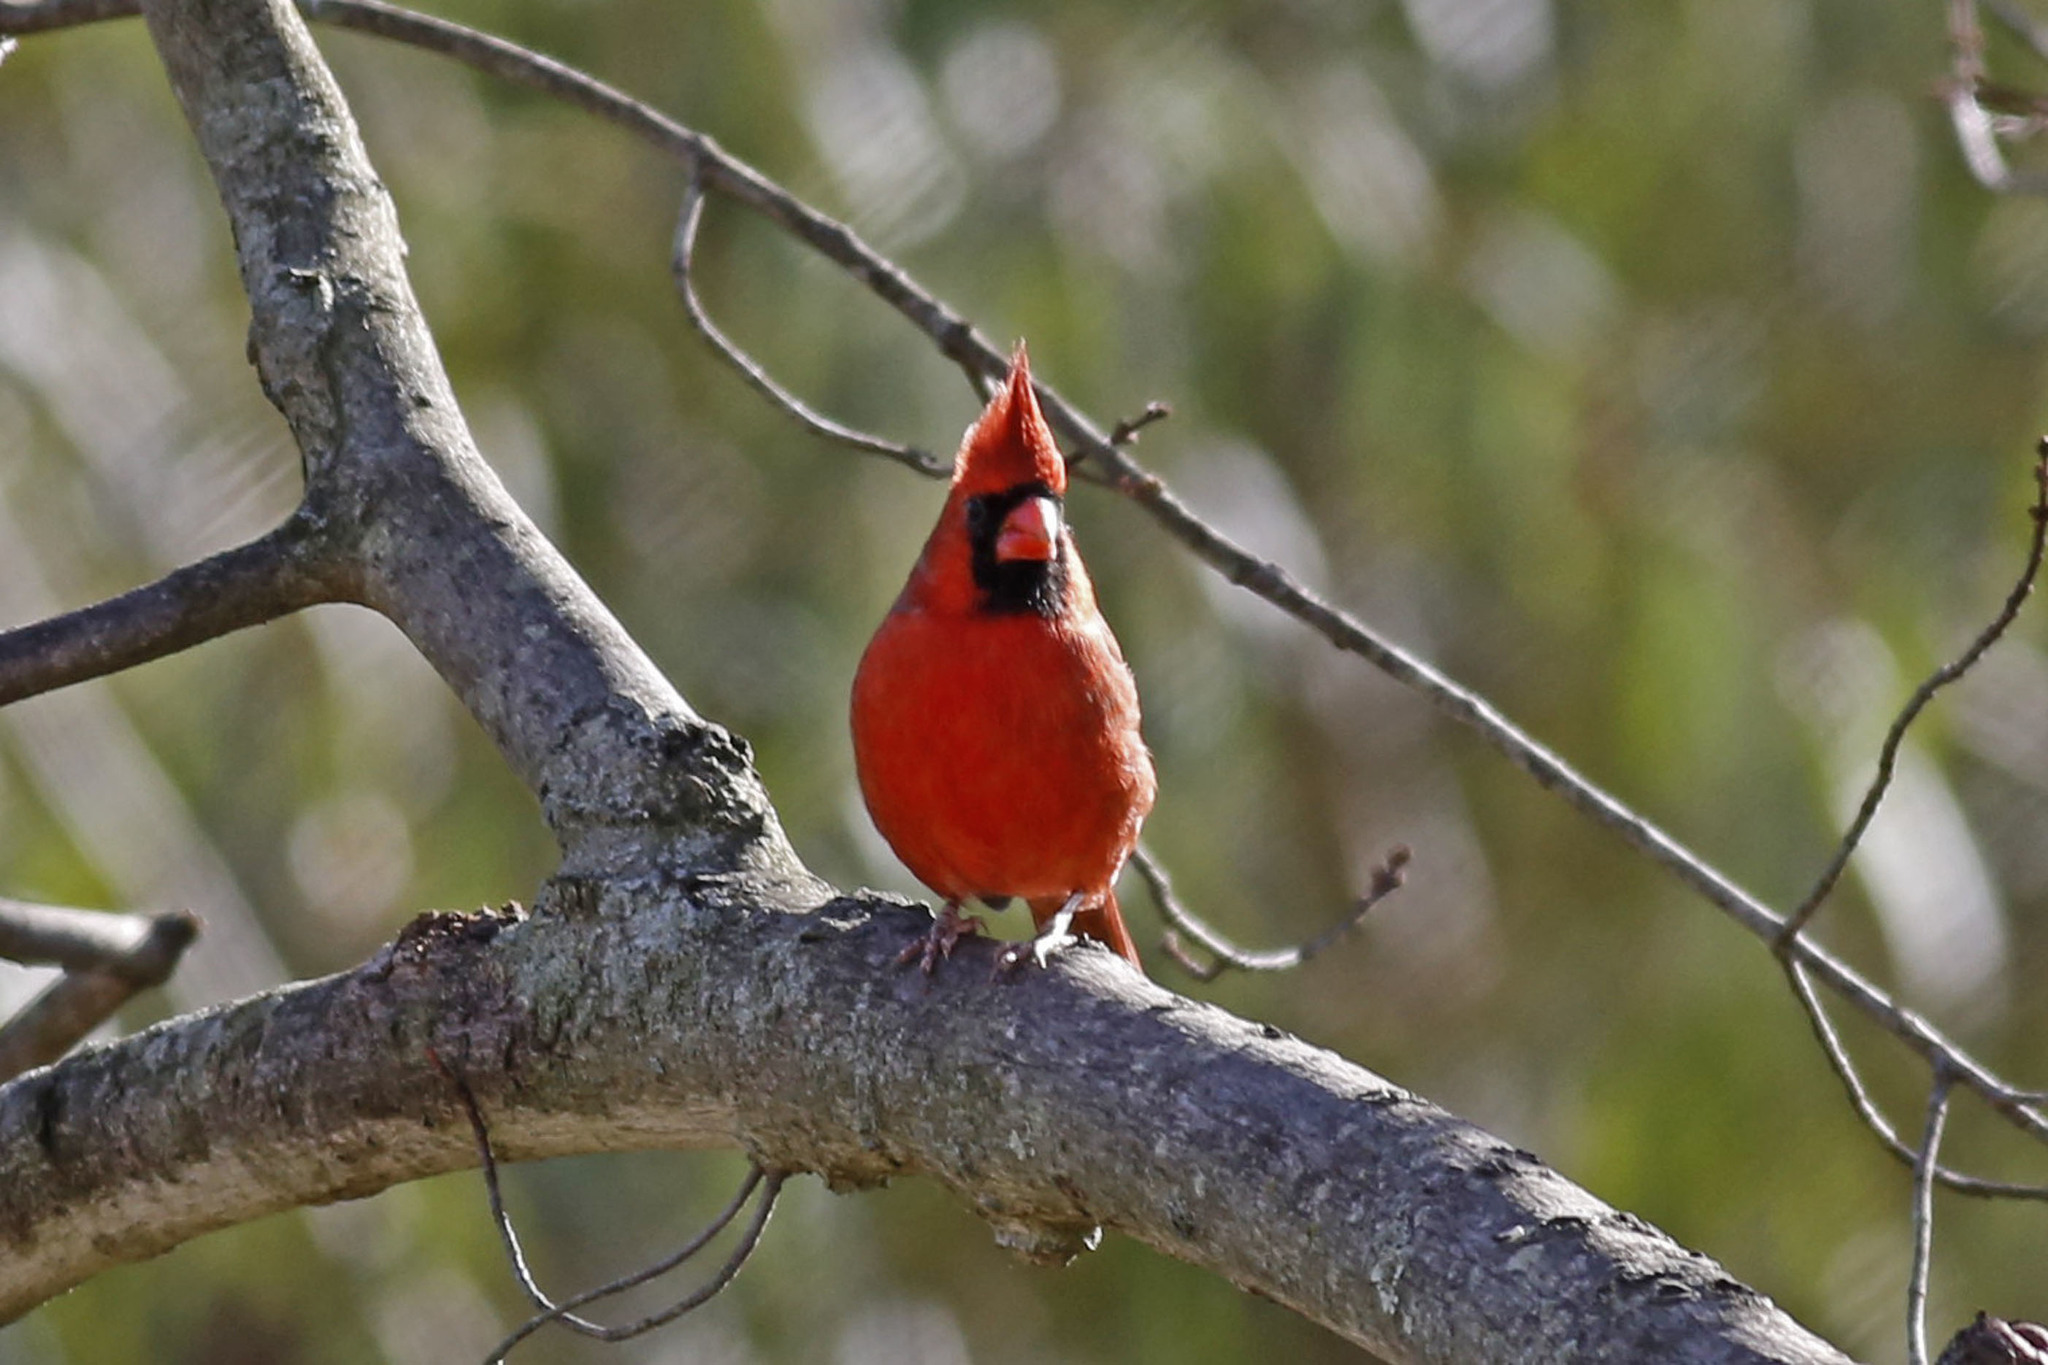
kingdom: Animalia
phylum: Chordata
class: Aves
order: Passeriformes
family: Cardinalidae
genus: Cardinalis
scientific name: Cardinalis cardinalis
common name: Northern cardinal
